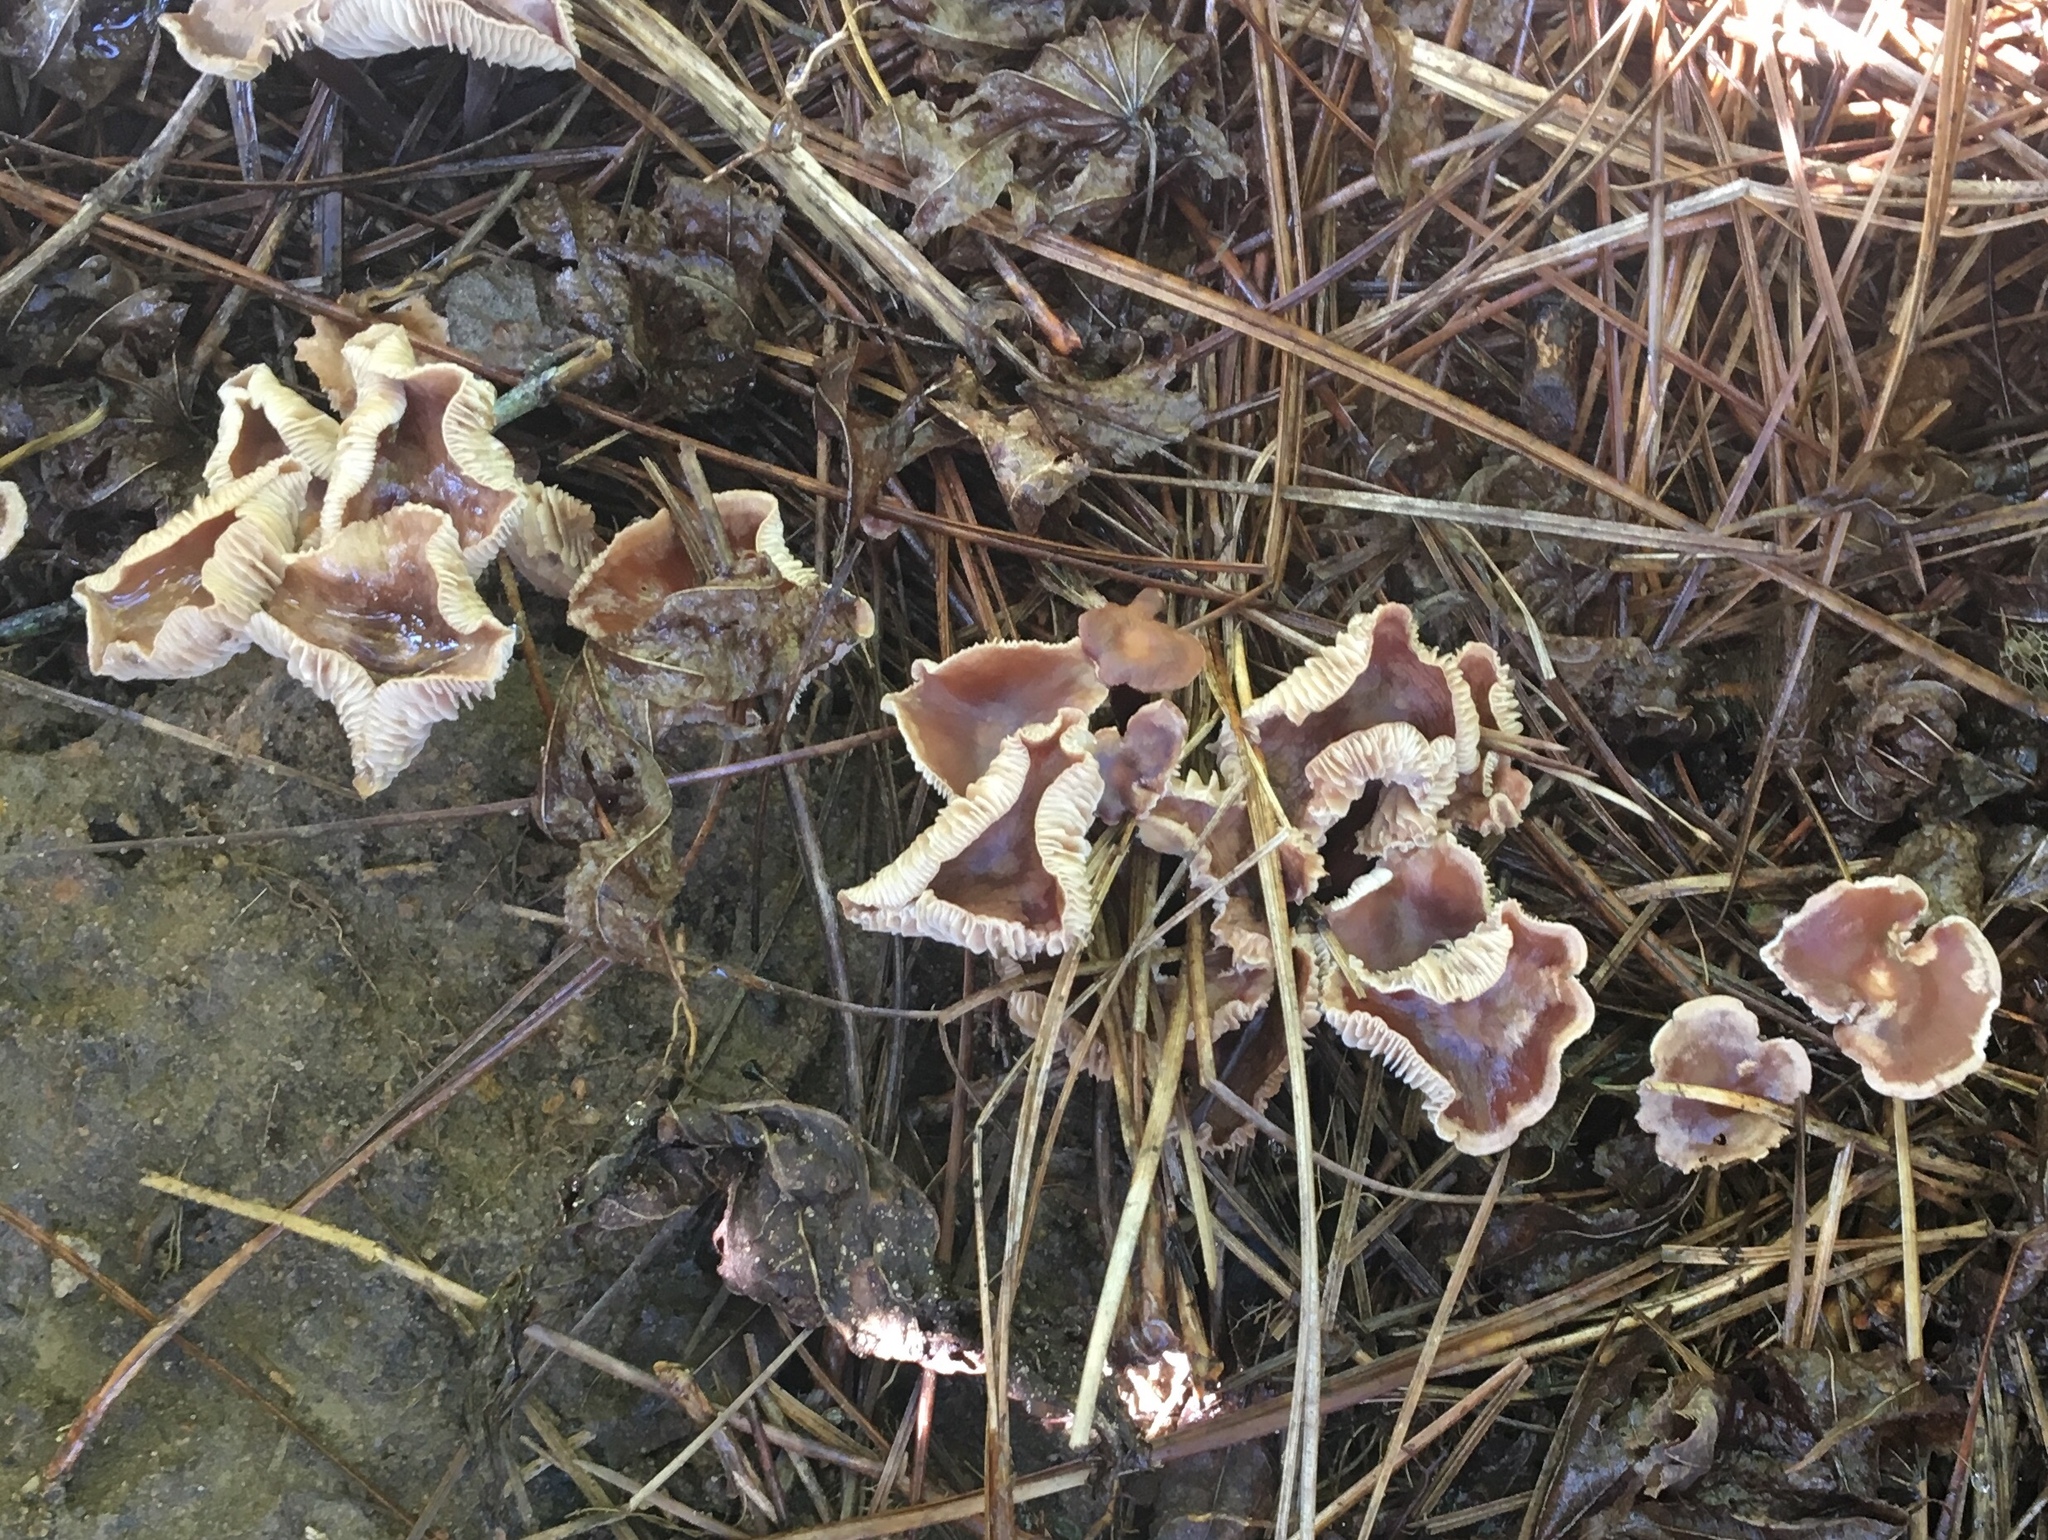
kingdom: Fungi
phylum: Basidiomycota
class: Agaricomycetes
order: Agaricales
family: Omphalotaceae
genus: Collybiopsis
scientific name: Collybiopsis luxurians
